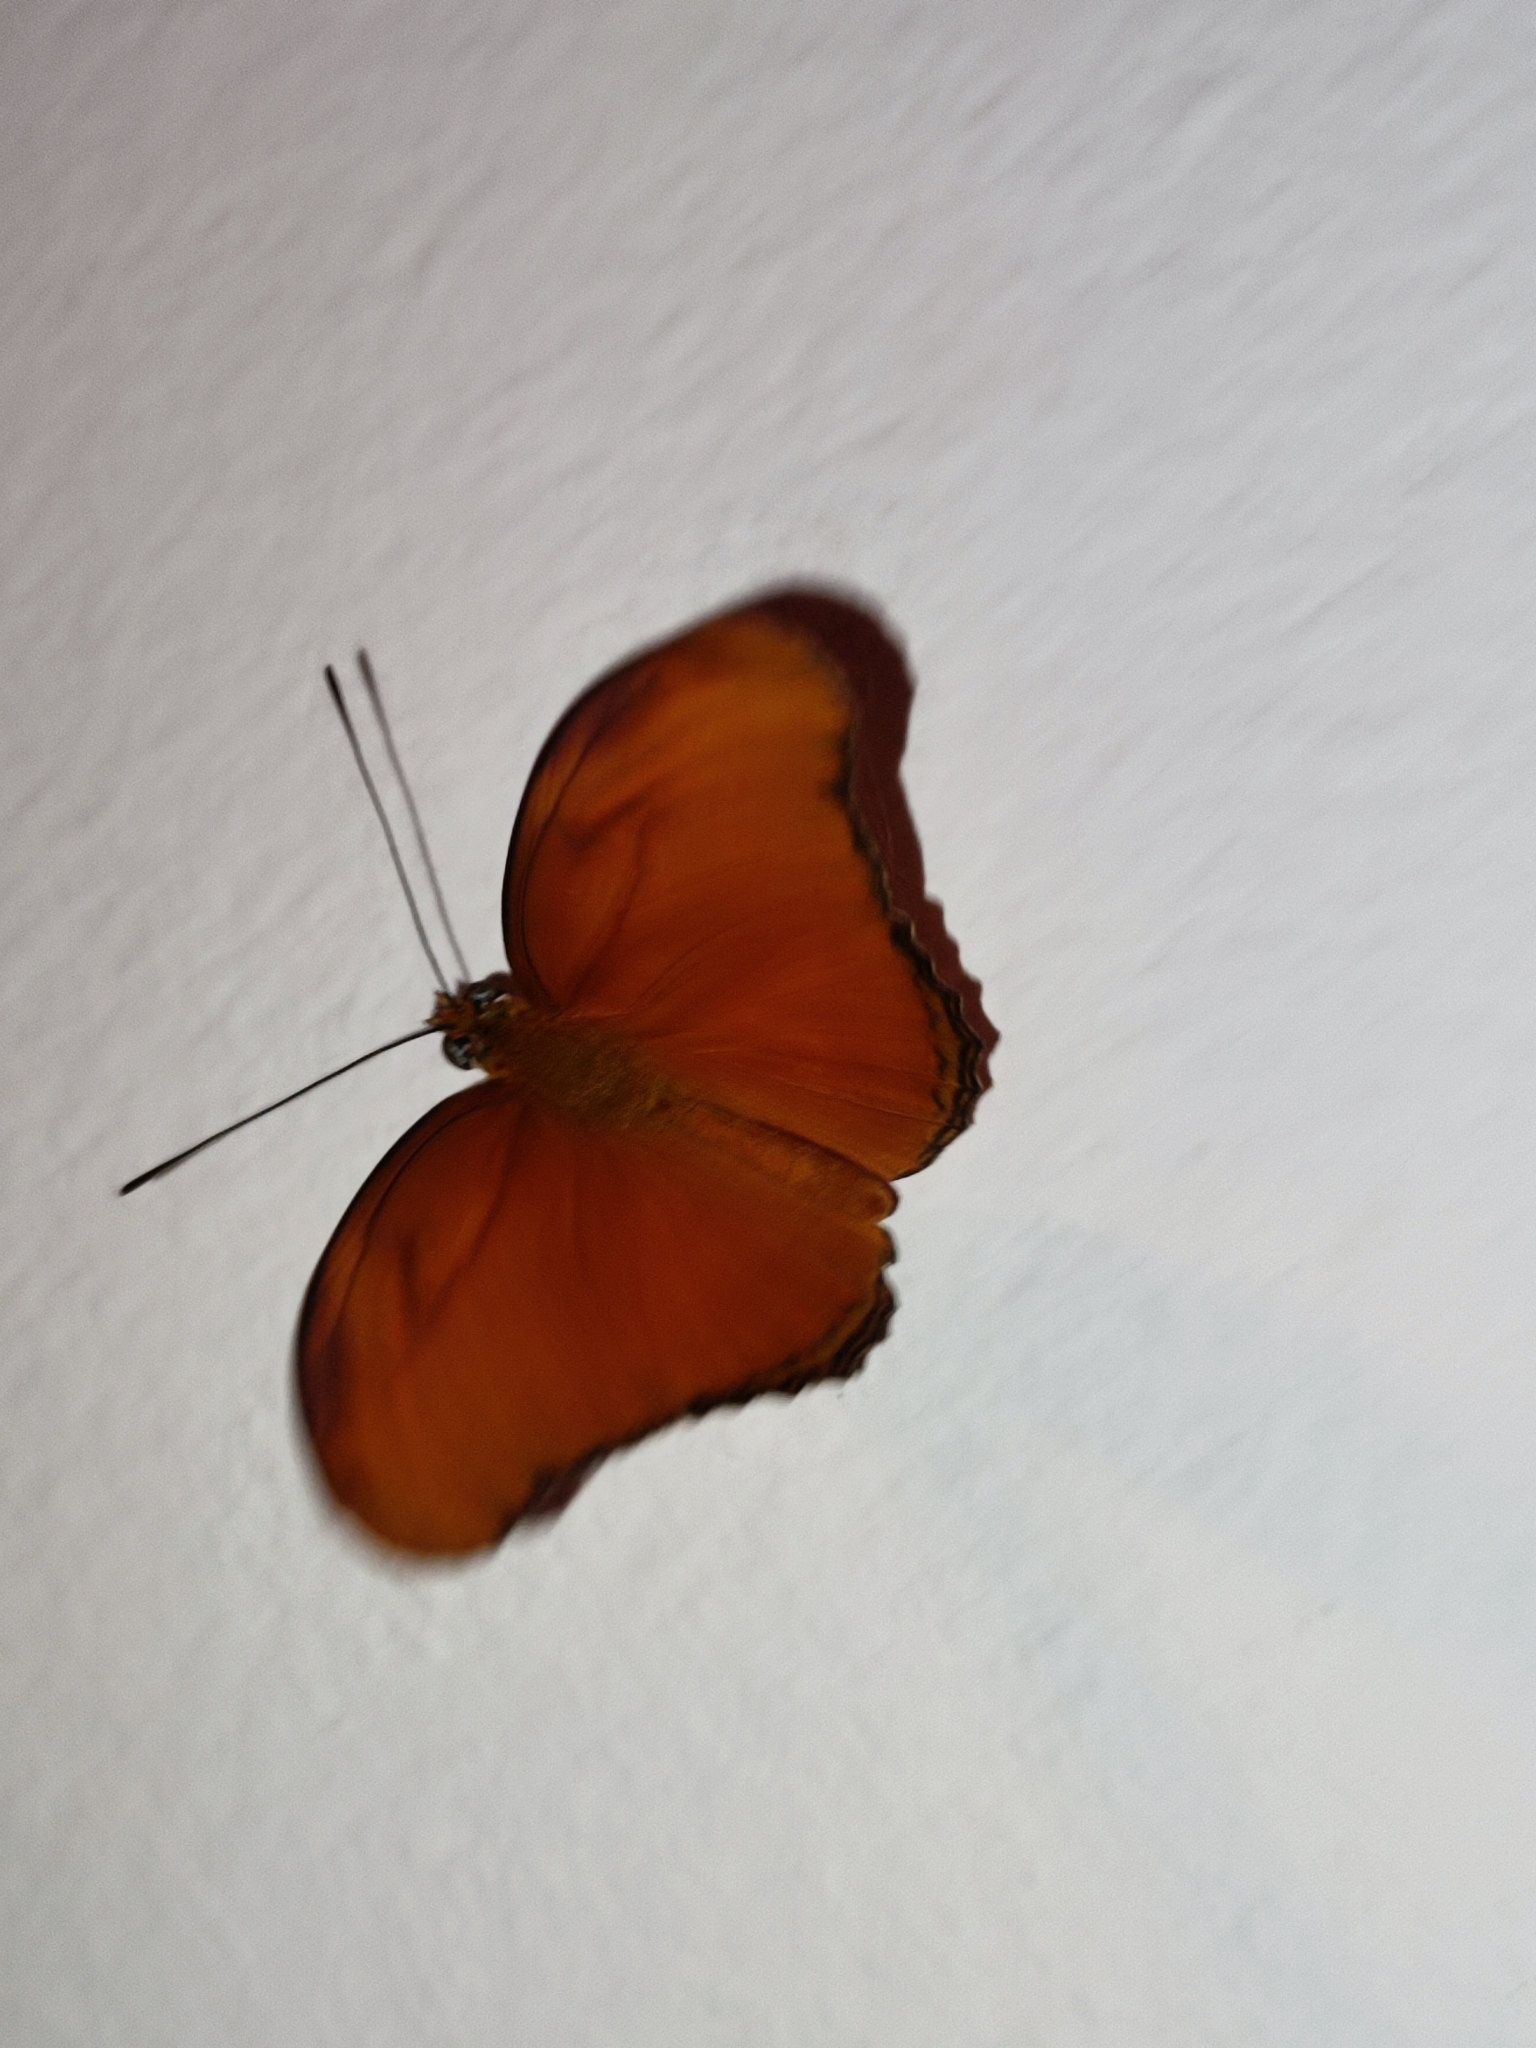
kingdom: Animalia
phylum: Arthropoda
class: Insecta
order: Lepidoptera
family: Nymphalidae
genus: Dryas
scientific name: Dryas iulia
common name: Flambeau
